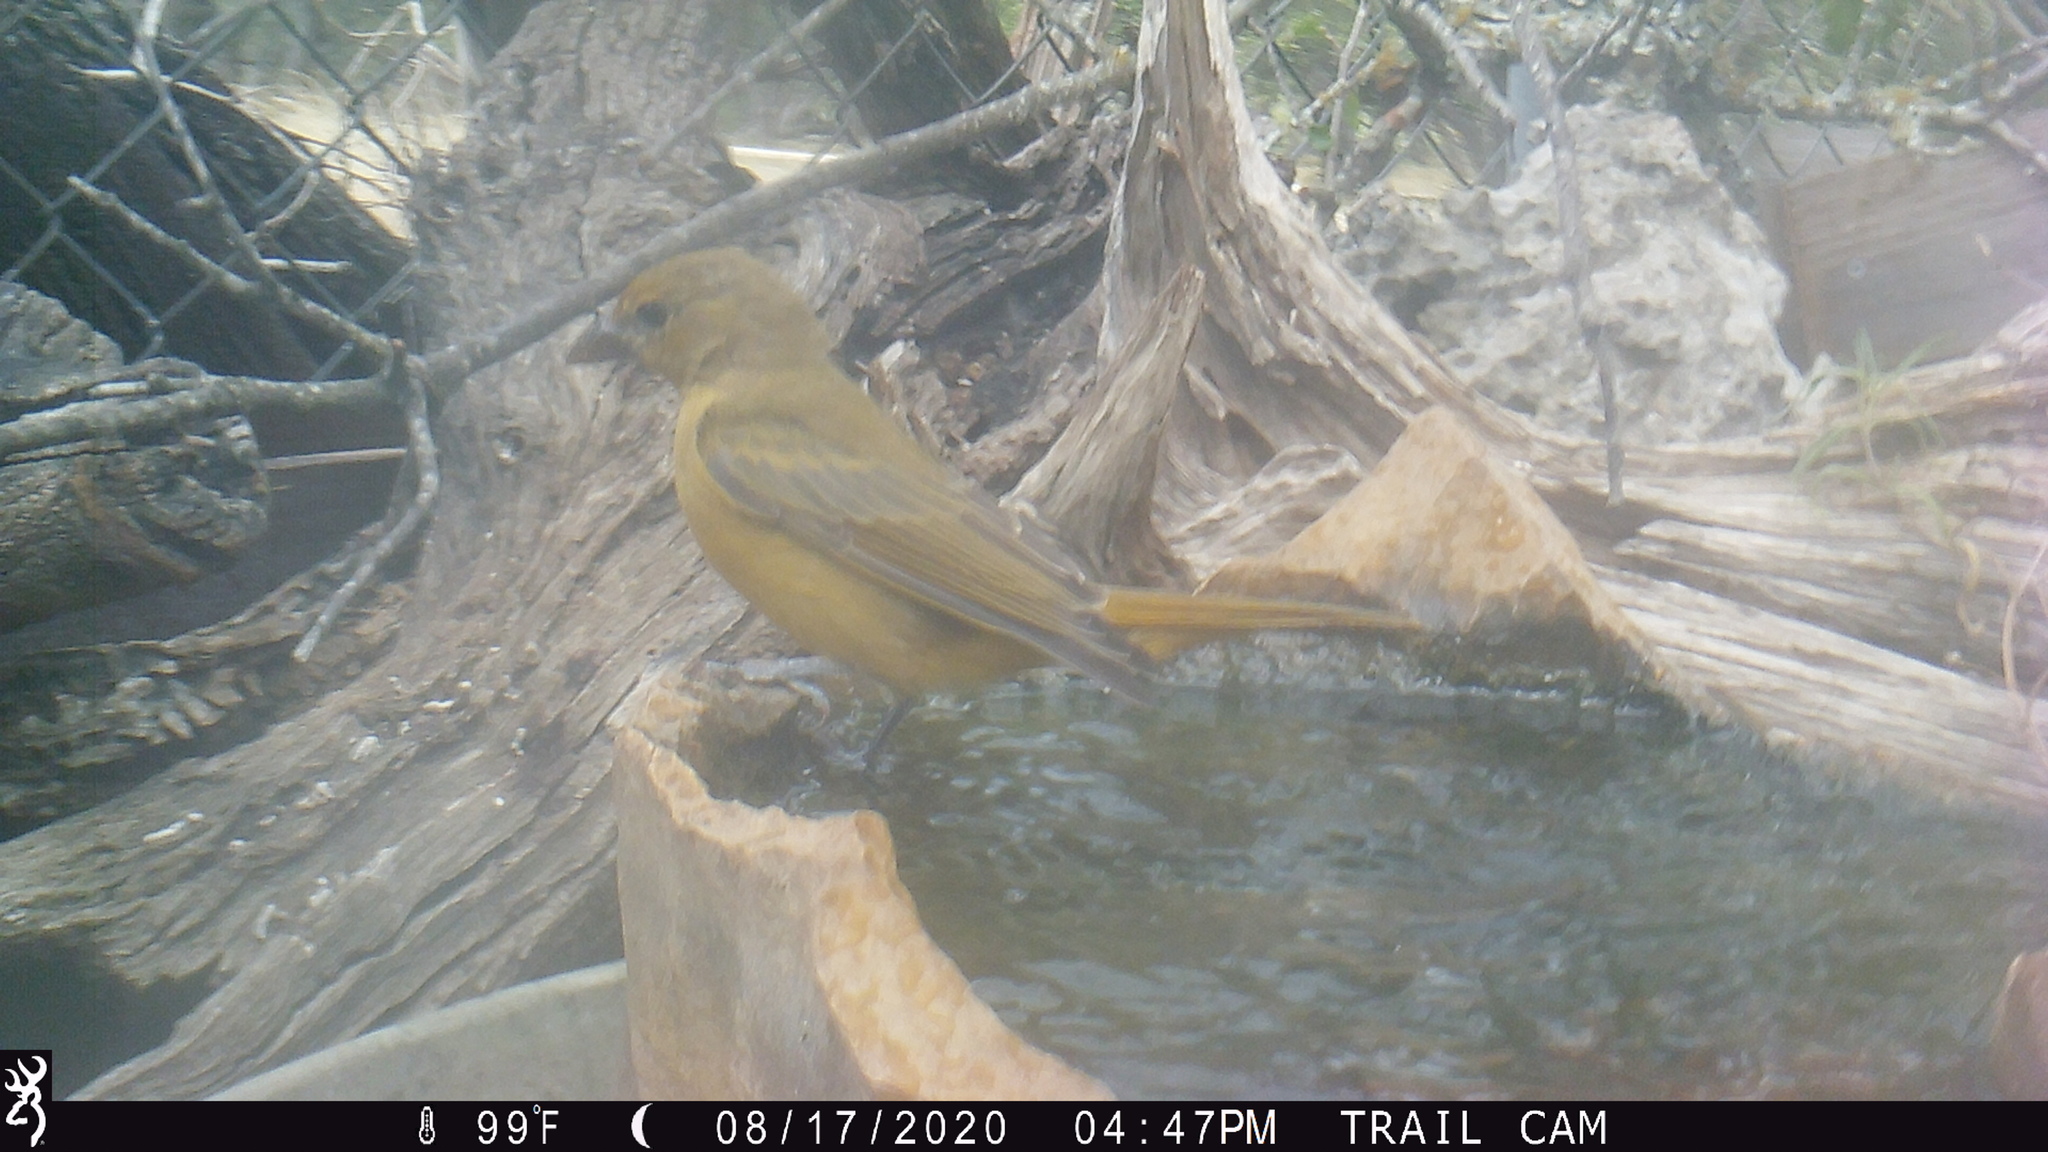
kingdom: Animalia
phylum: Chordata
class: Aves
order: Passeriformes
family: Cardinalidae
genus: Piranga
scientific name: Piranga rubra
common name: Summer tanager
